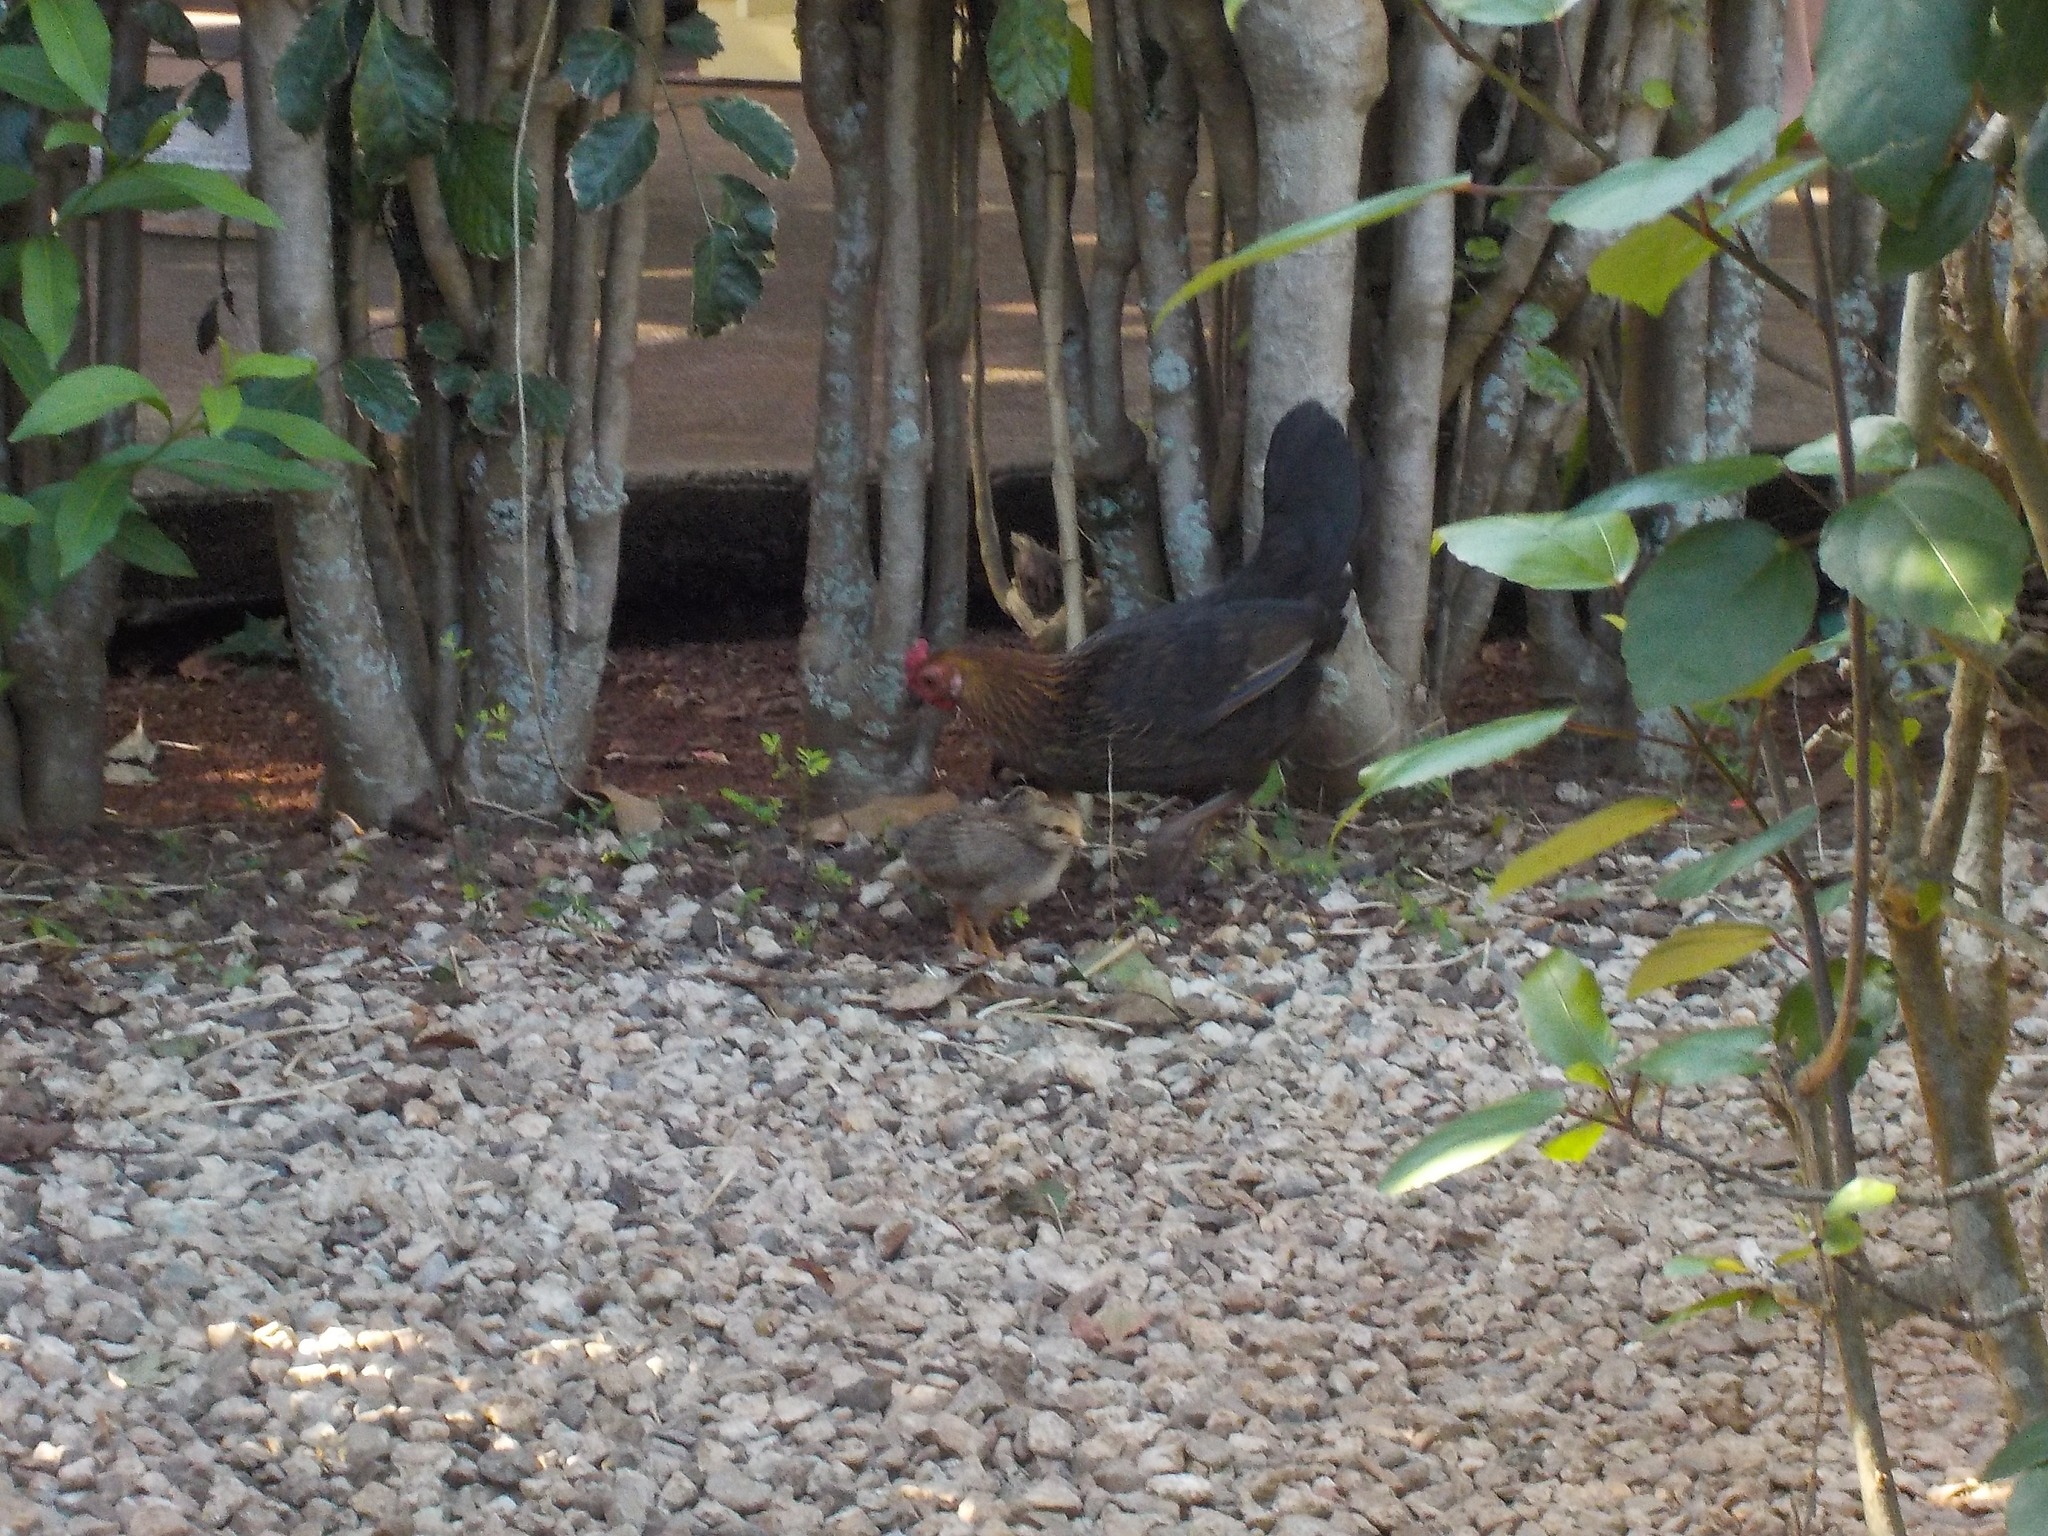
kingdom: Animalia
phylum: Chordata
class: Aves
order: Galliformes
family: Phasianidae
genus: Gallus
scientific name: Gallus gallus
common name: Red junglefowl
